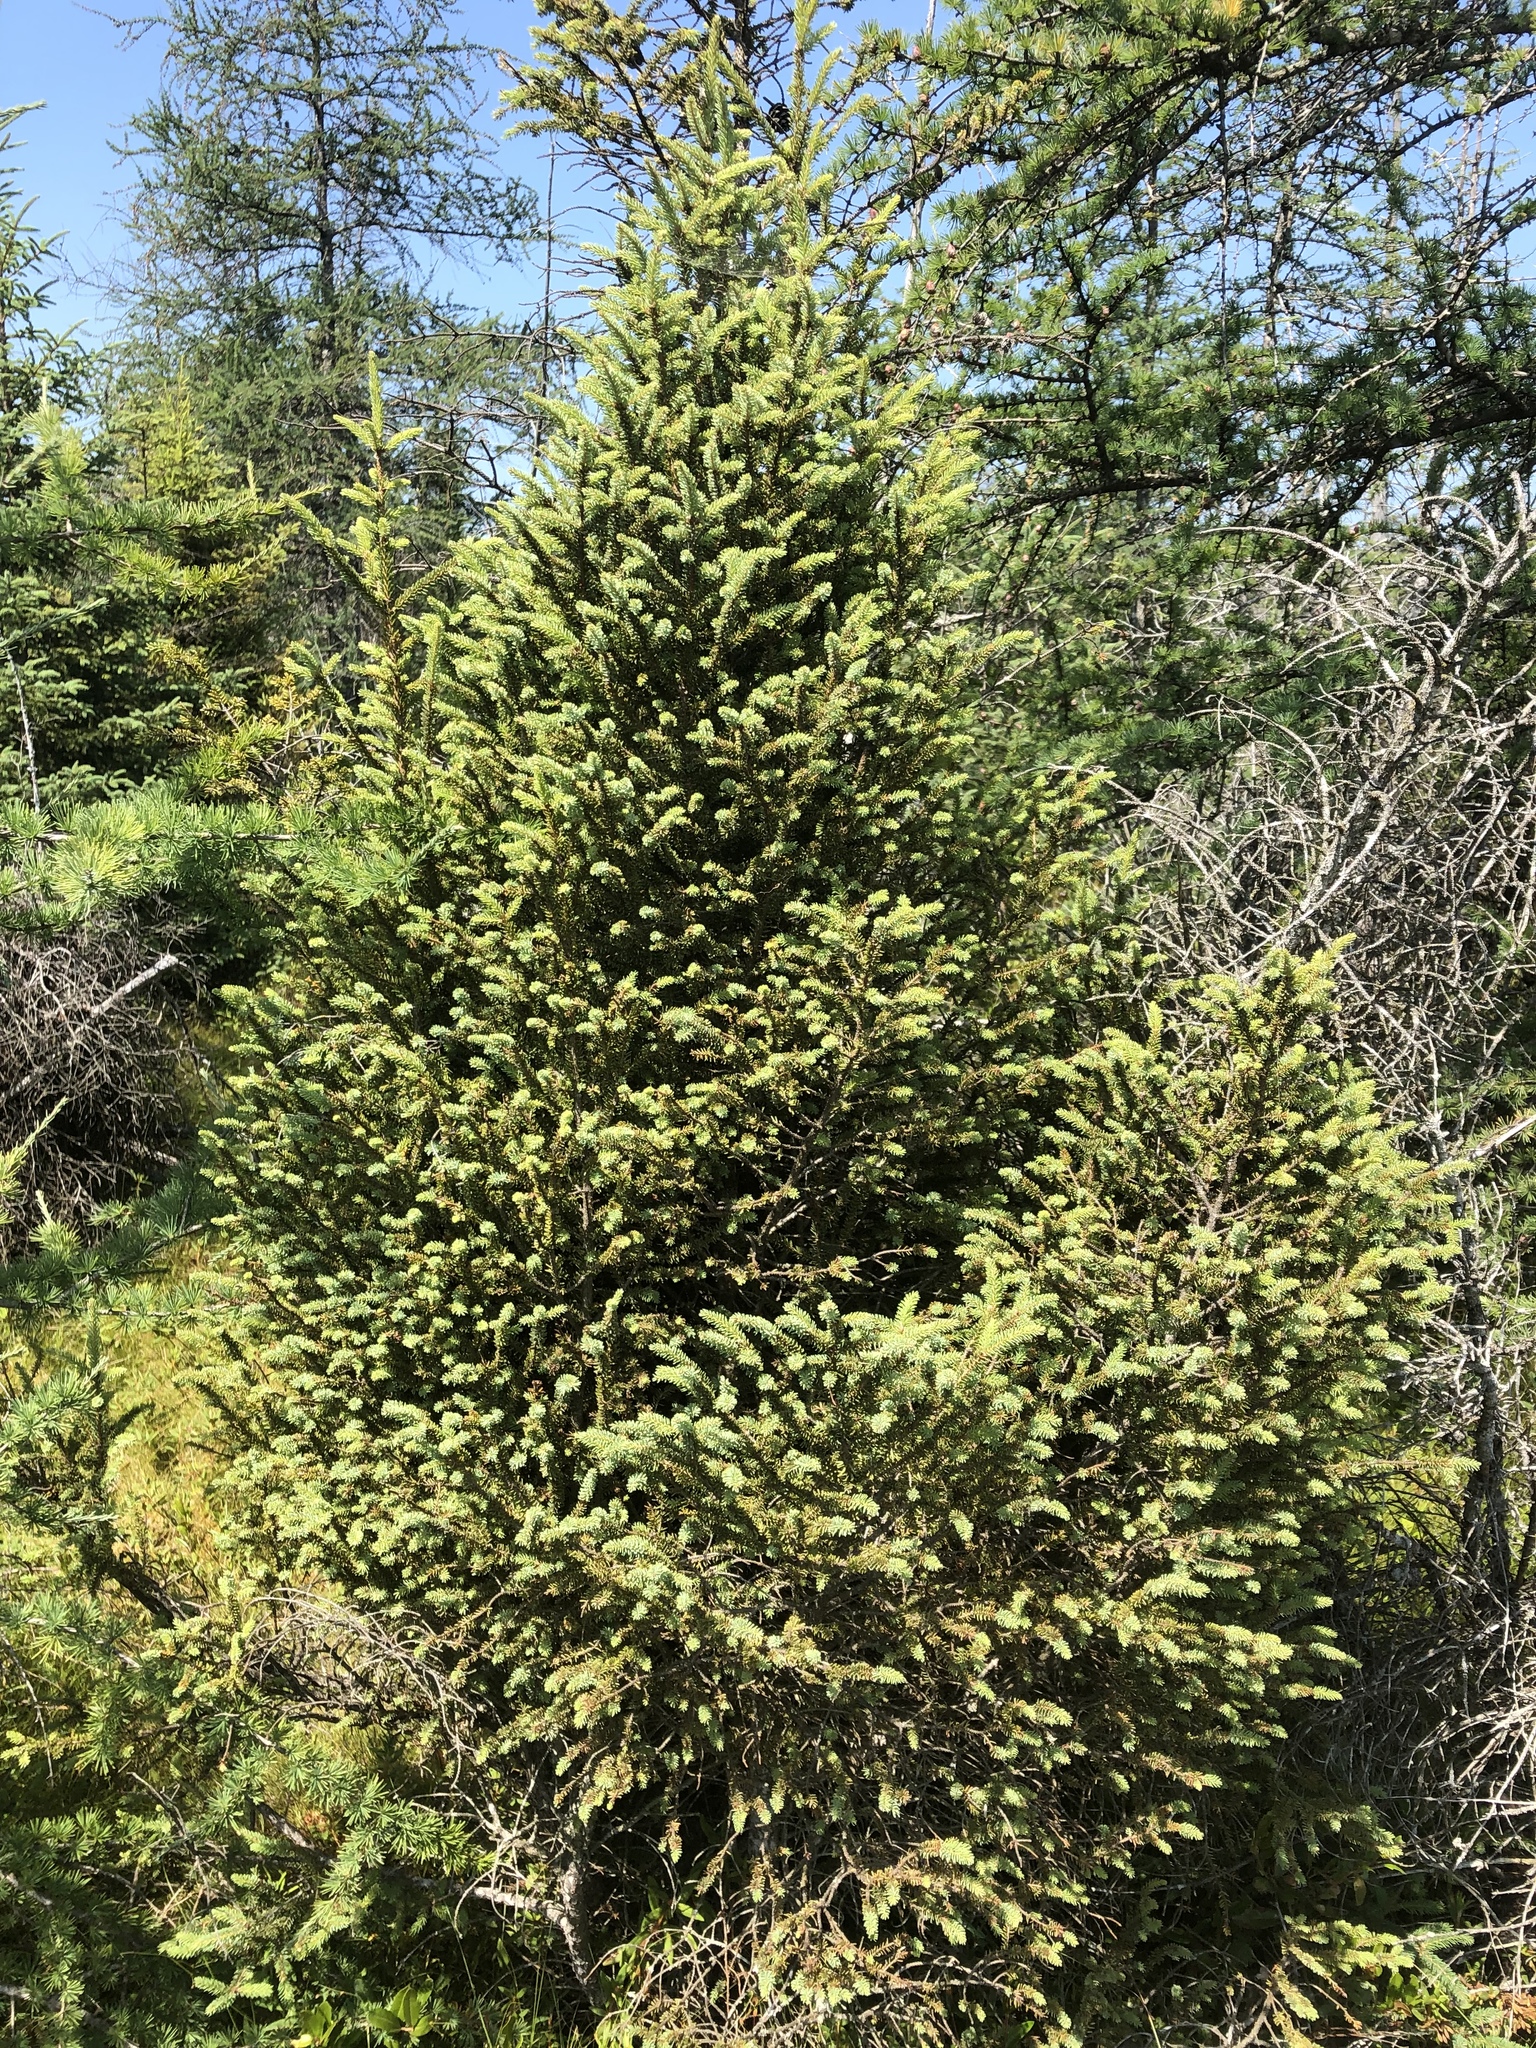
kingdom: Plantae
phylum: Tracheophyta
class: Pinopsida
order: Pinales
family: Pinaceae
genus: Picea
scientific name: Picea mariana
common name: Black spruce
